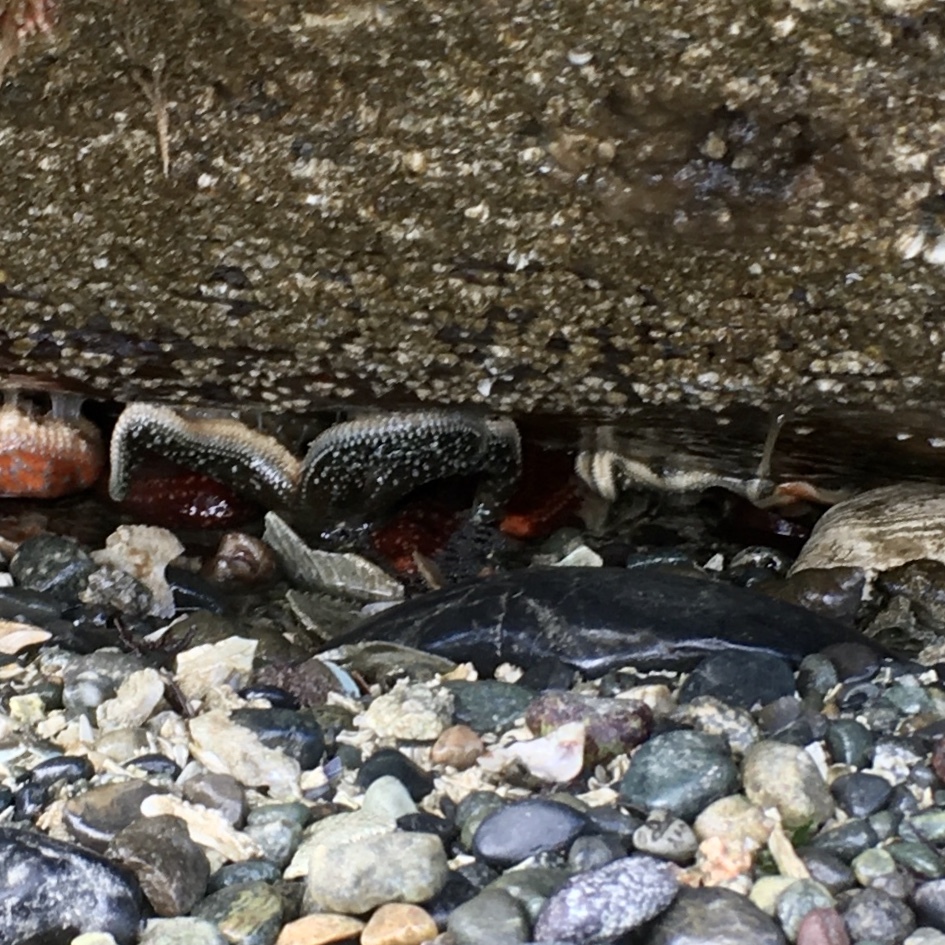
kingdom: Animalia
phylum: Echinodermata
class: Asteroidea
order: Forcipulatida
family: Asteriidae
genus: Evasterias
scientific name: Evasterias troschelii
